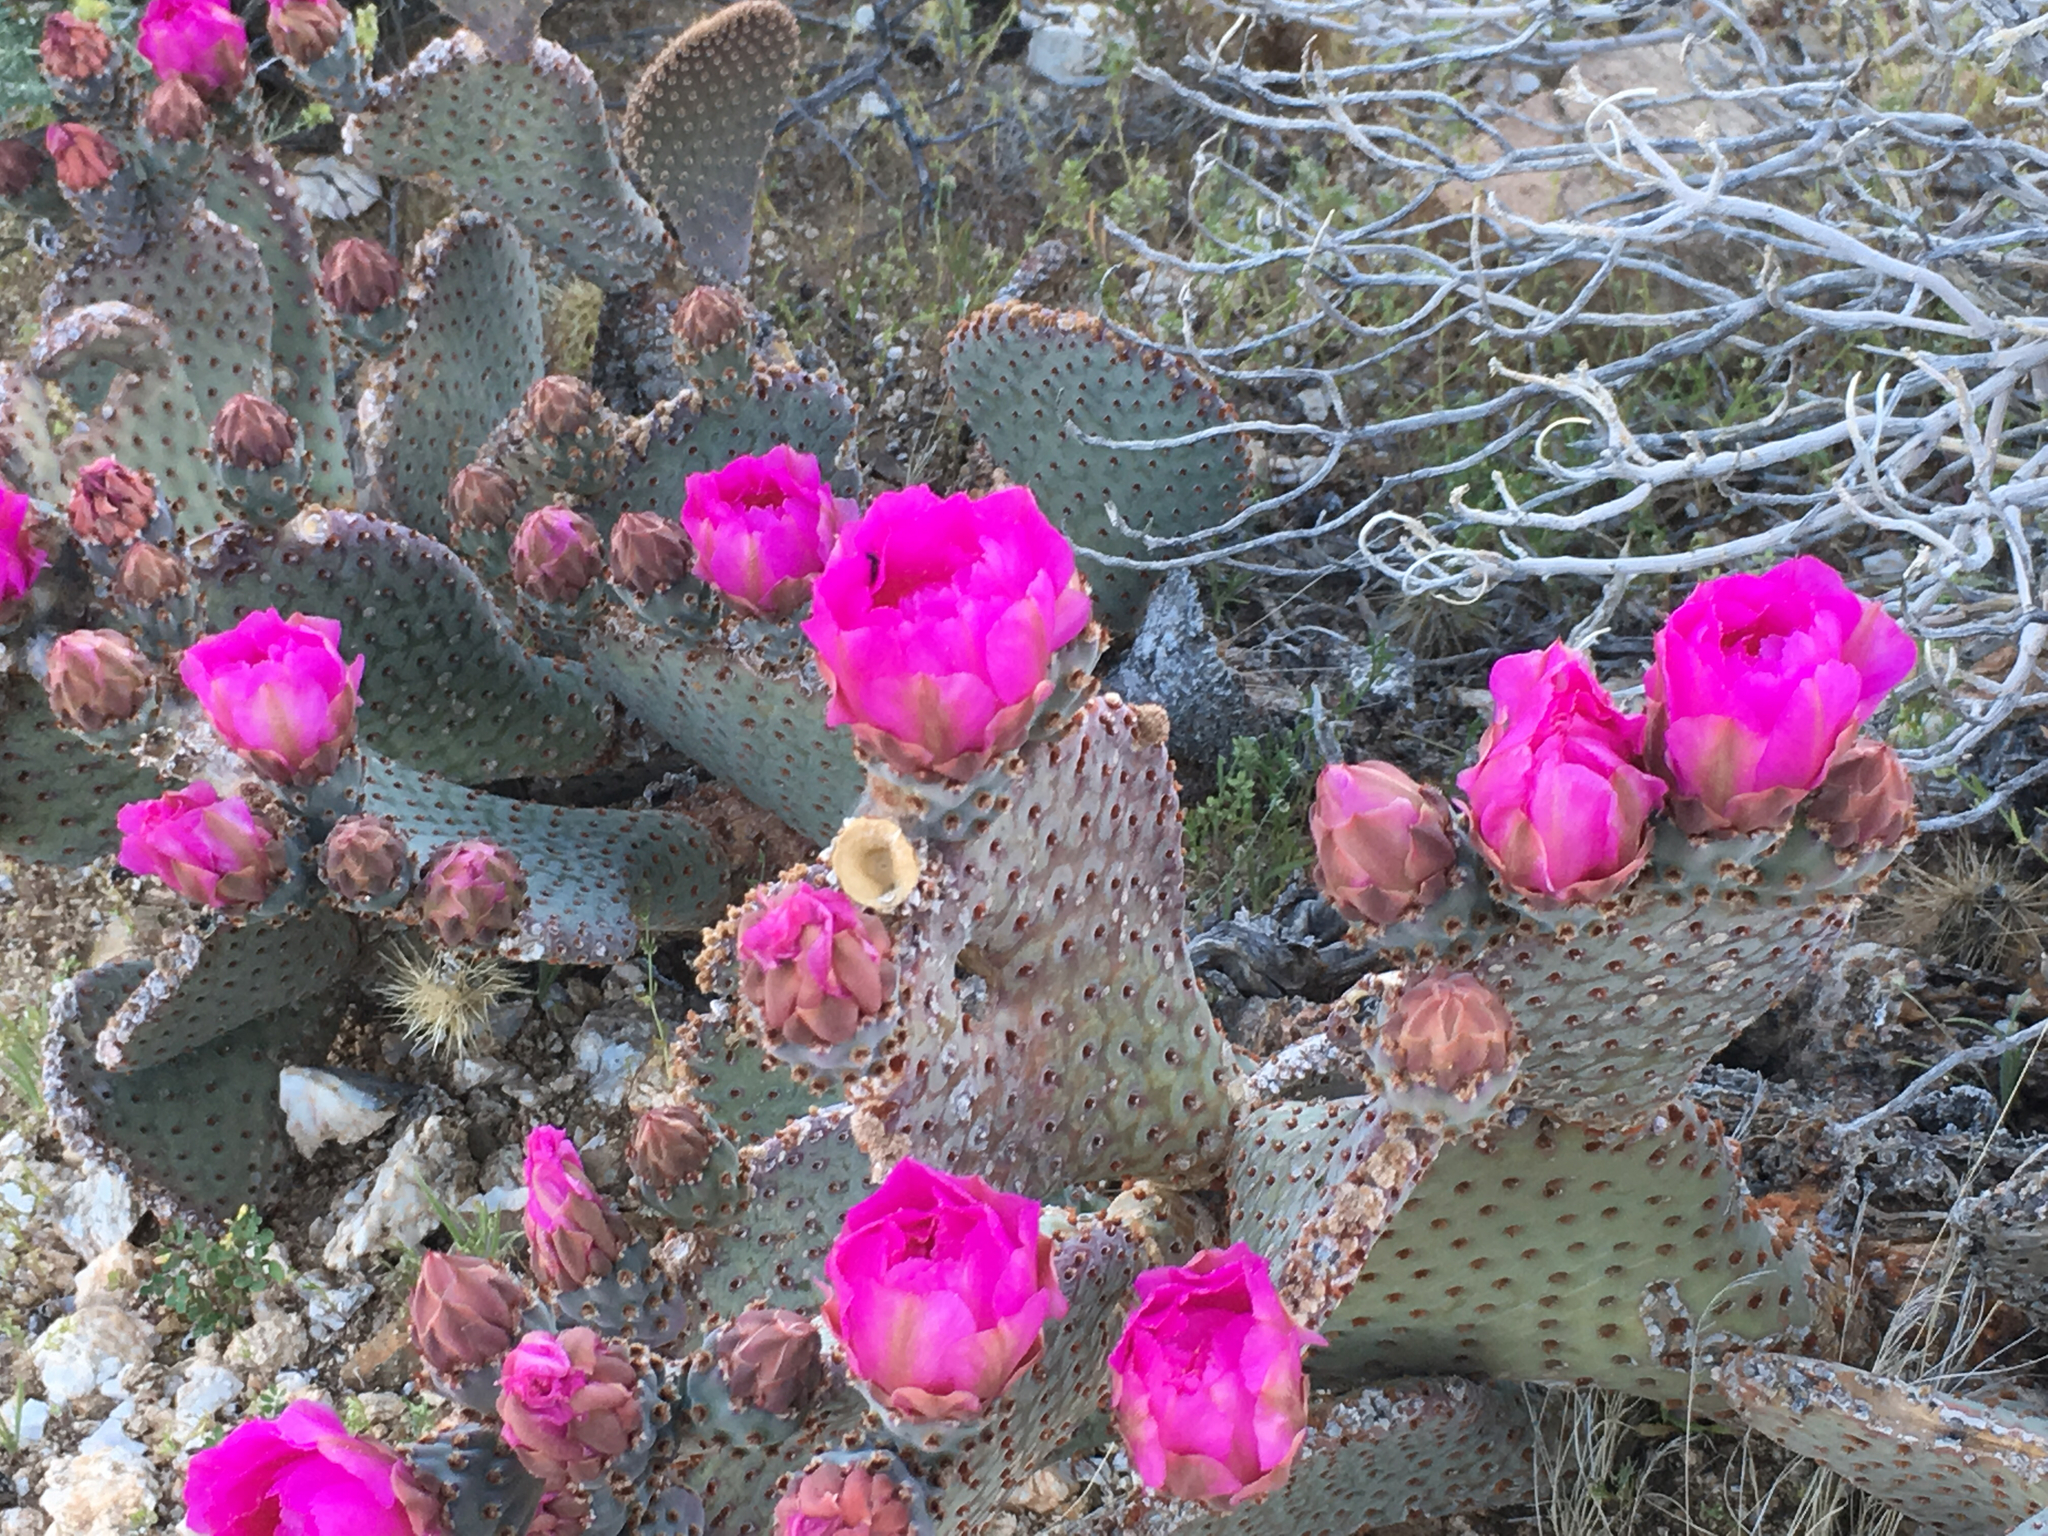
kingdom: Plantae
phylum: Tracheophyta
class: Magnoliopsida
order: Caryophyllales
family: Cactaceae
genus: Opuntia
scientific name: Opuntia basilaris
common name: Beavertail prickly-pear
